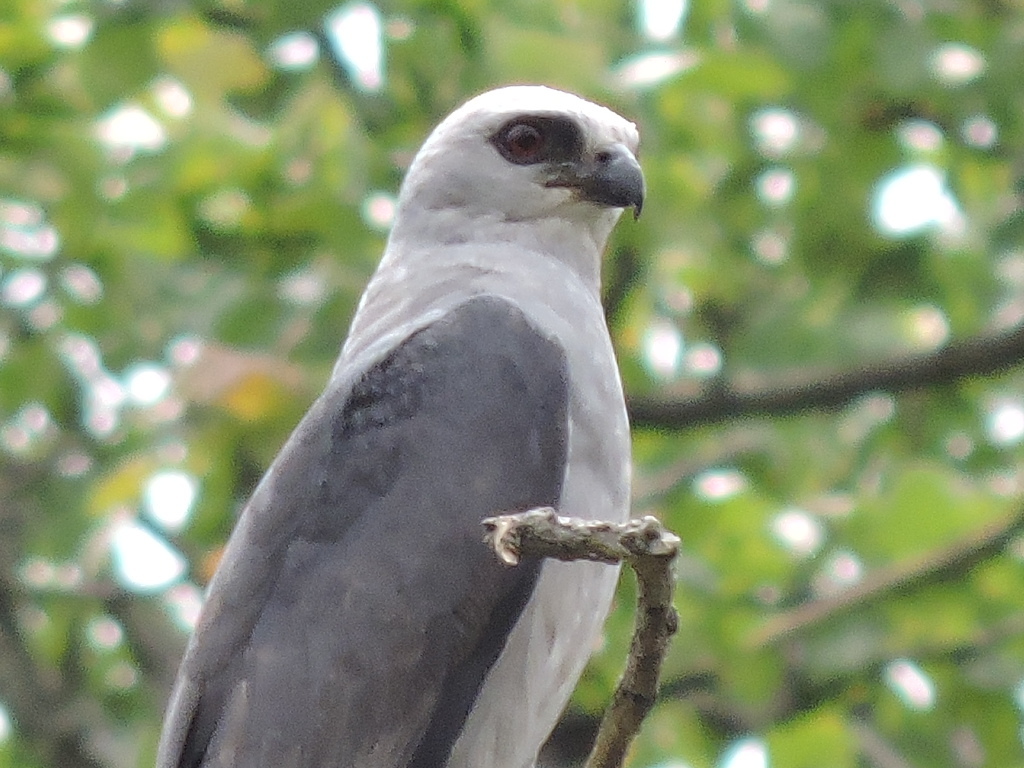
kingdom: Animalia
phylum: Chordata
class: Aves
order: Accipitriformes
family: Accipitridae
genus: Ictinia
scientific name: Ictinia mississippiensis
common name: Mississippi kite
